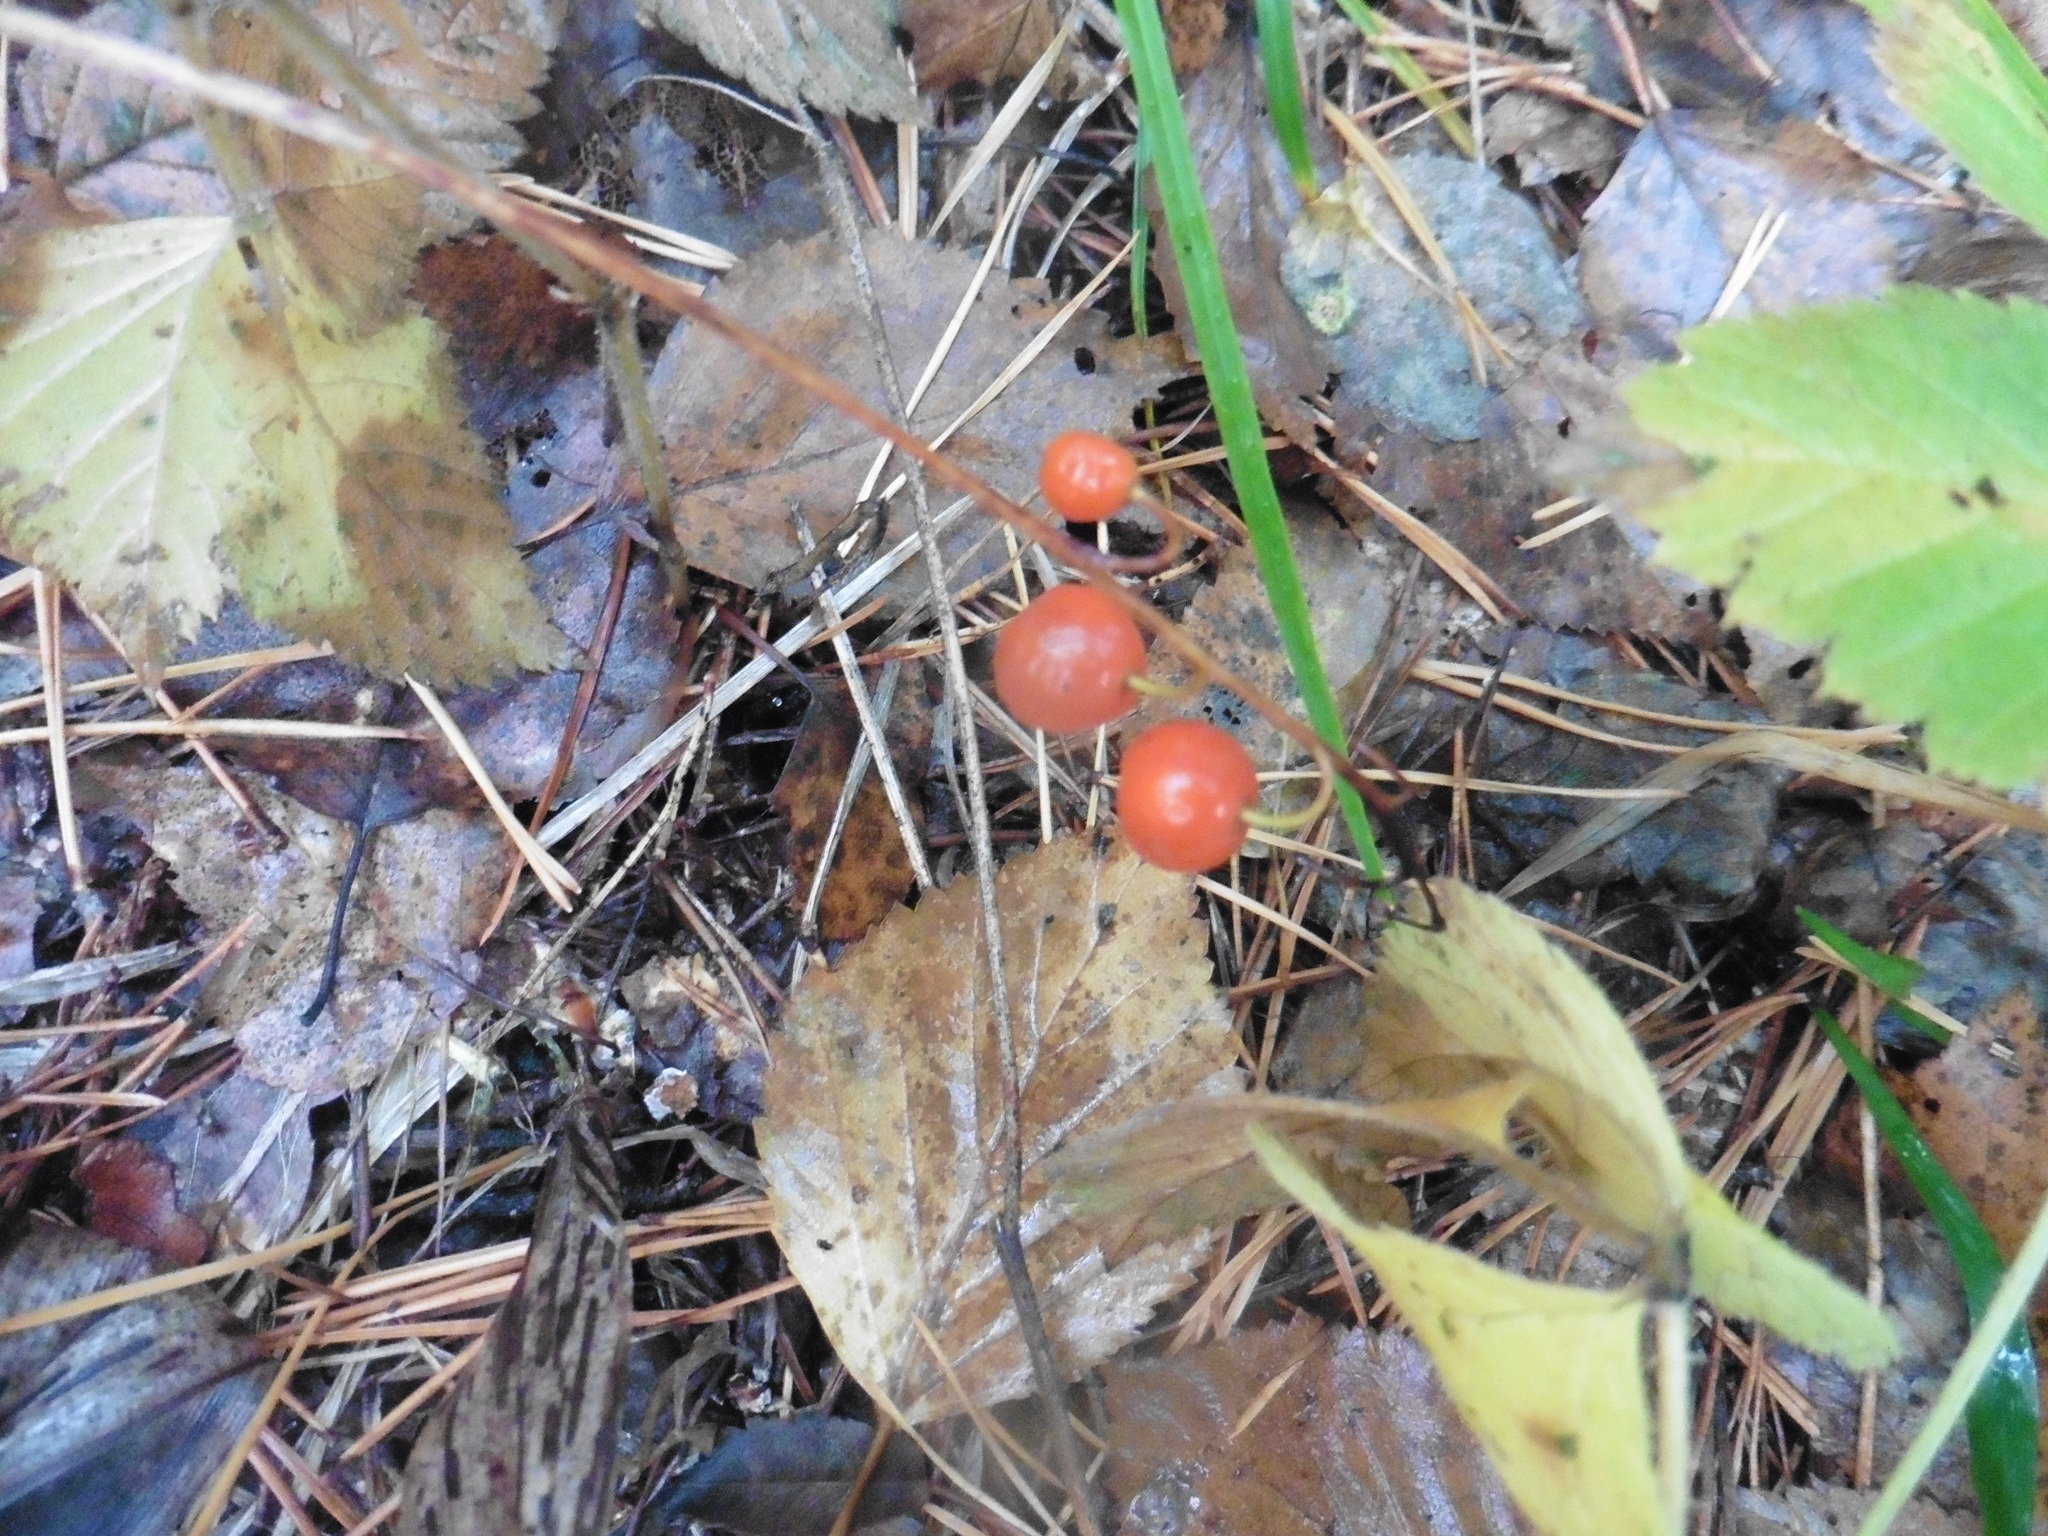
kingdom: Plantae
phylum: Tracheophyta
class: Liliopsida
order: Asparagales
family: Asparagaceae
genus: Convallaria
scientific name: Convallaria majalis
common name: Lily-of-the-valley
